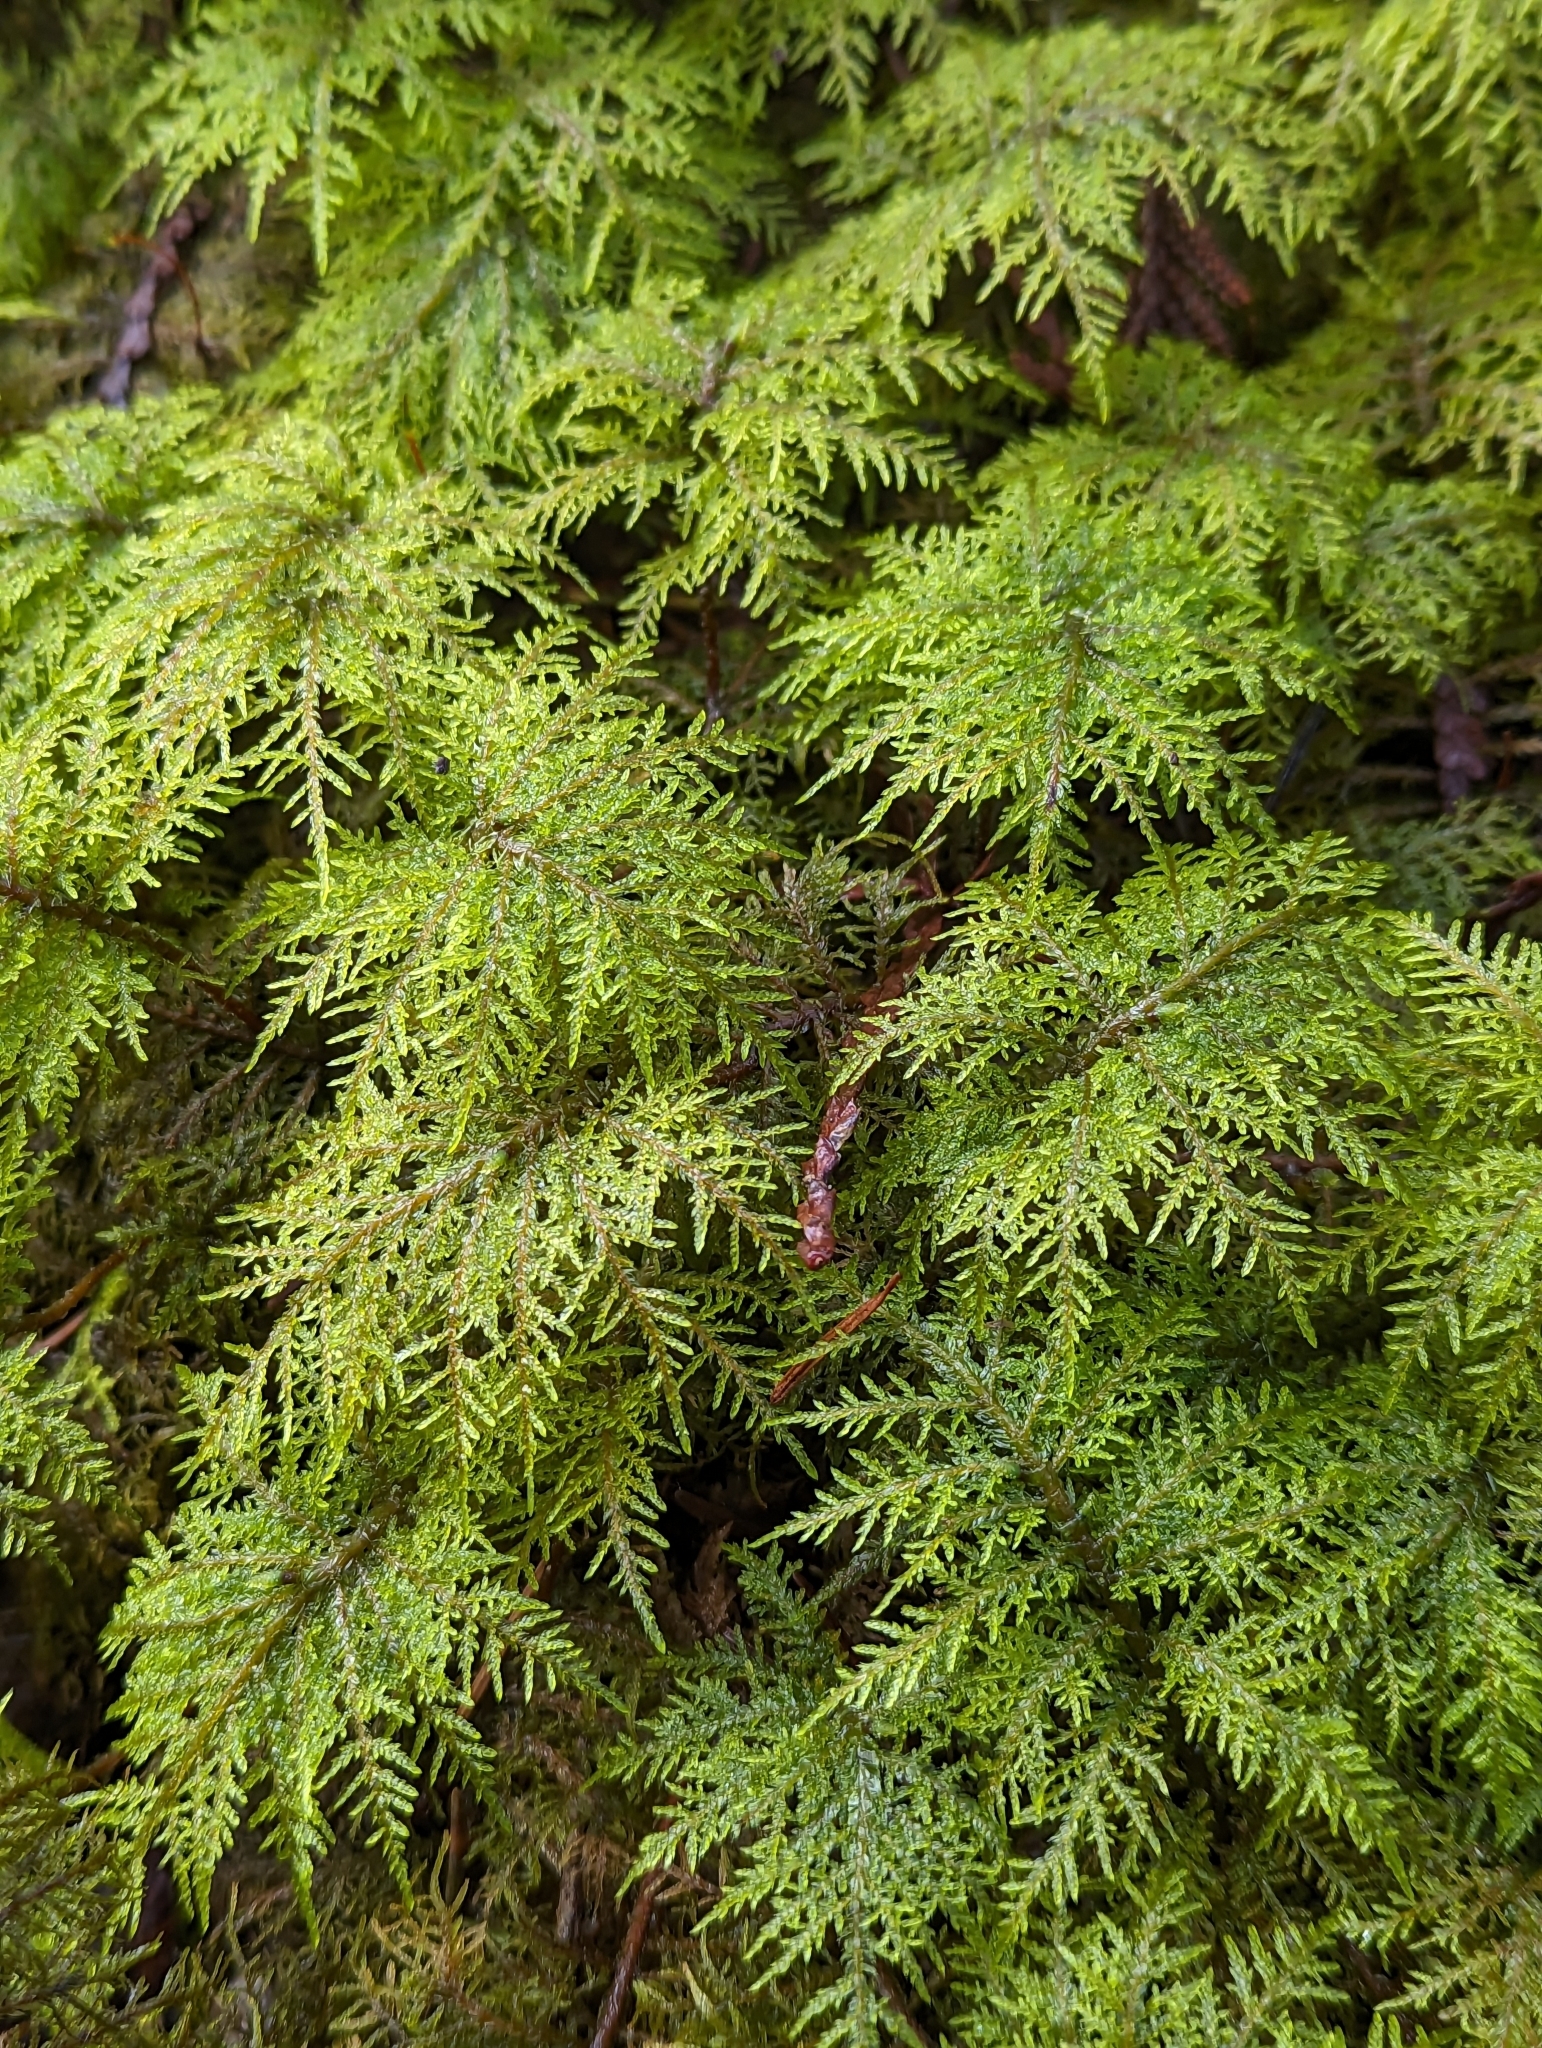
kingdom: Plantae
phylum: Bryophyta
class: Bryopsida
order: Hypnales
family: Hylocomiaceae
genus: Hylocomium
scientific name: Hylocomium splendens
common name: Stairstep moss
